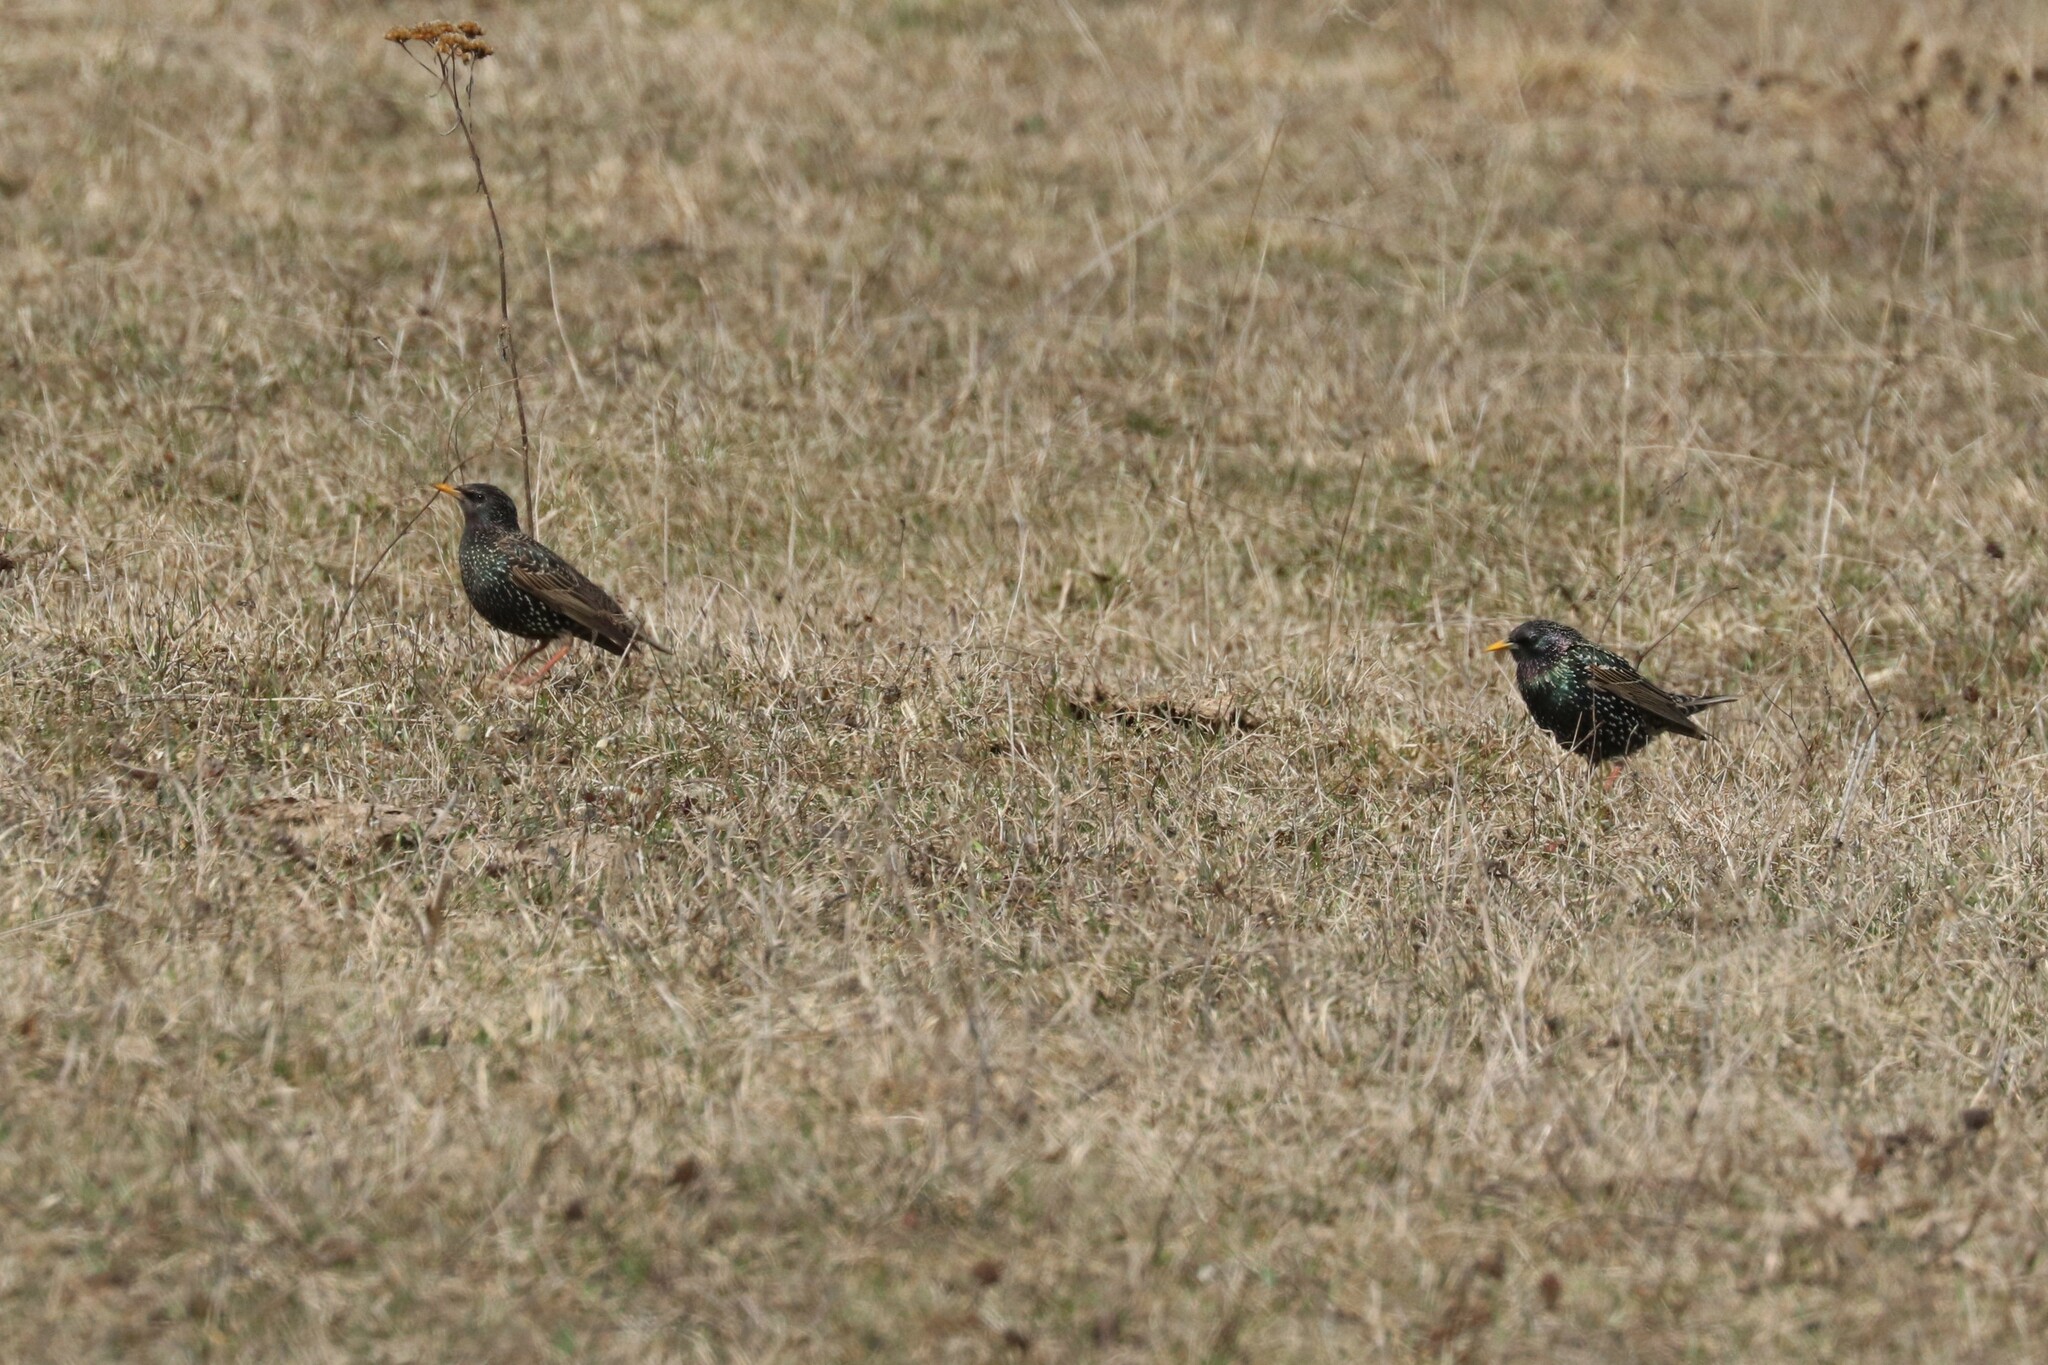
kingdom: Animalia
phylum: Chordata
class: Aves
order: Passeriformes
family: Sturnidae
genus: Sturnus
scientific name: Sturnus vulgaris
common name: Common starling
